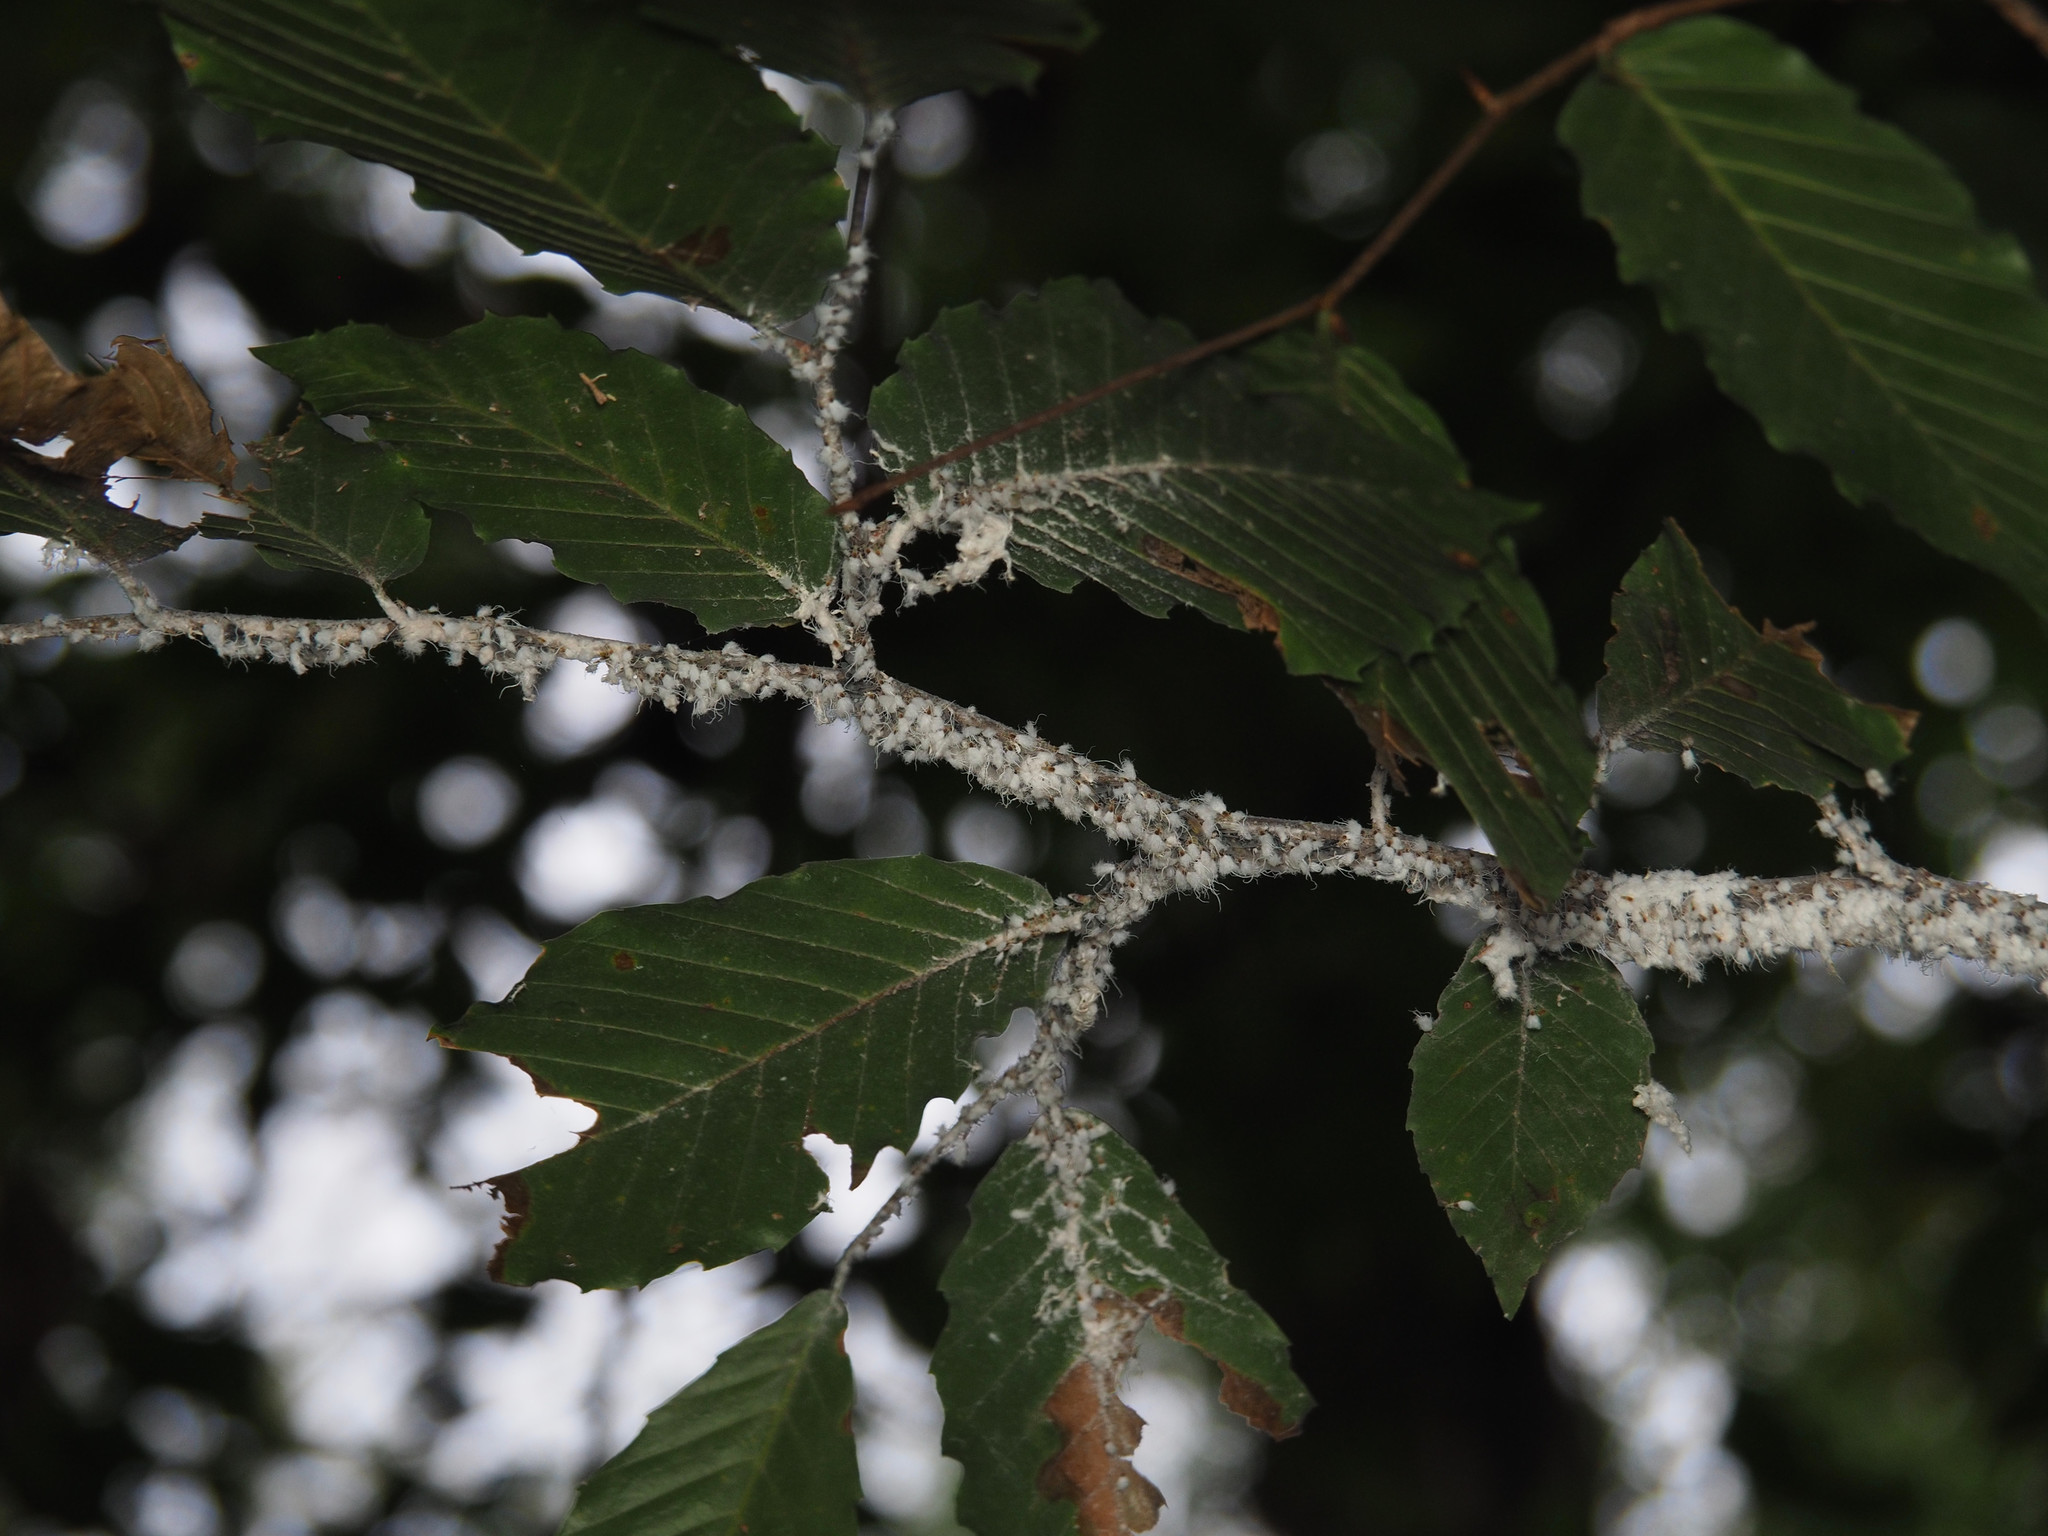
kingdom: Animalia
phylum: Arthropoda
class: Insecta
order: Hemiptera
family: Aphididae
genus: Grylloprociphilus
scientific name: Grylloprociphilus imbricator
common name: Beech blight aphid
